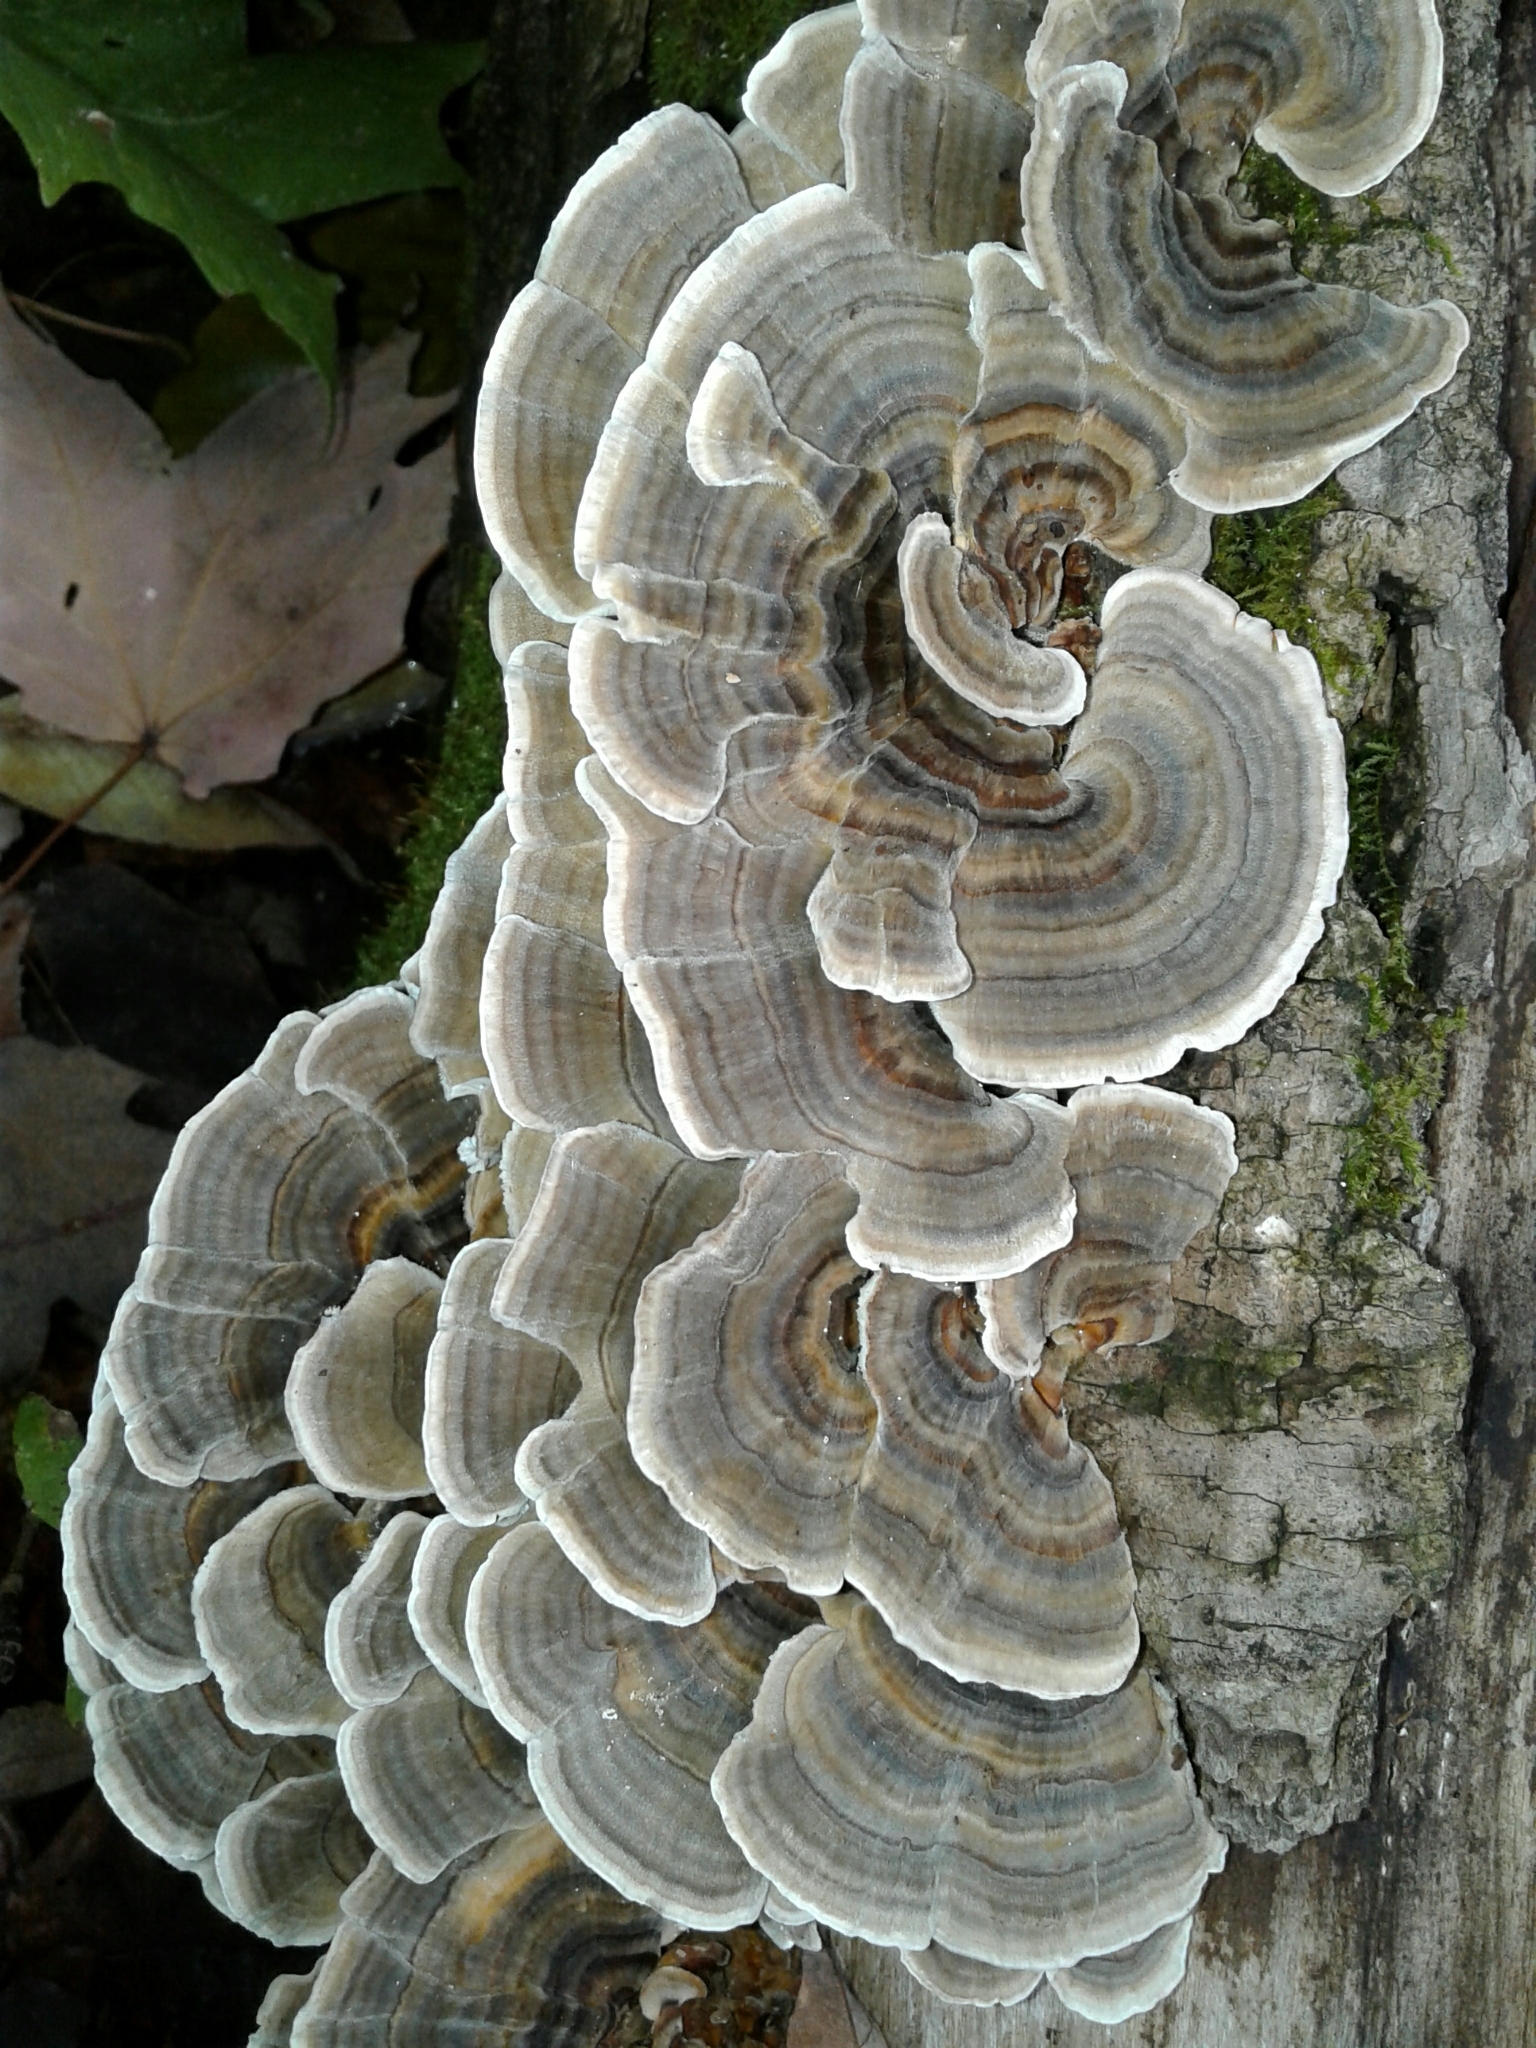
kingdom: Fungi
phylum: Basidiomycota
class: Agaricomycetes
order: Polyporales
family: Polyporaceae
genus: Trametes
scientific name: Trametes versicolor
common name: Turkeytail
